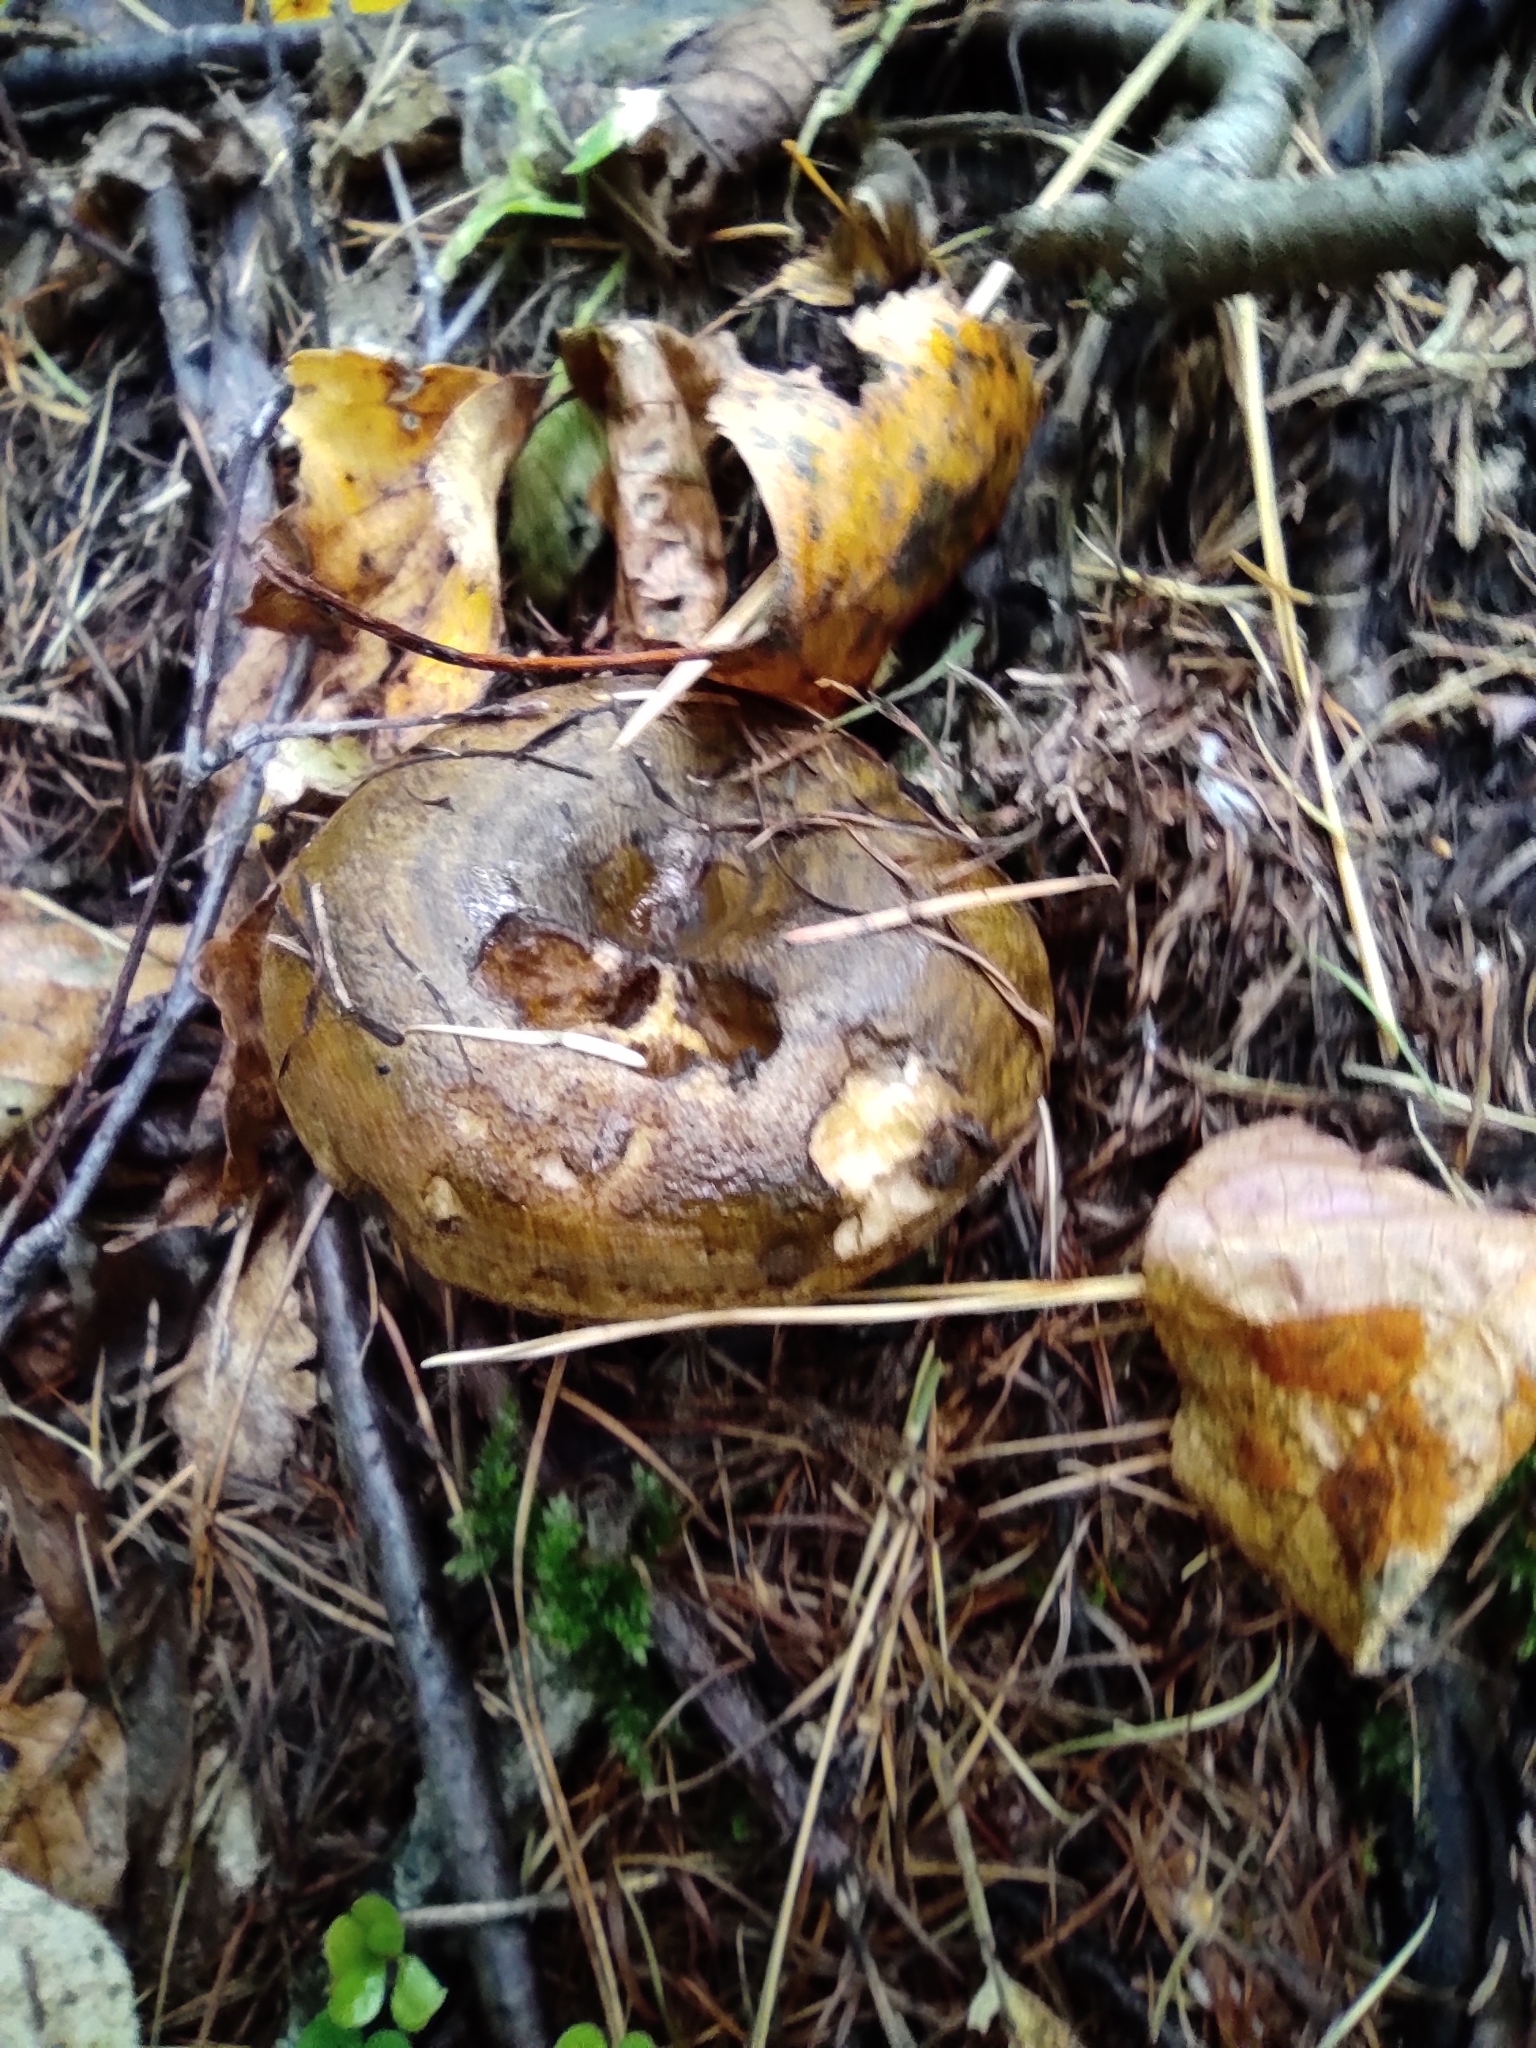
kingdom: Fungi
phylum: Basidiomycota
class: Agaricomycetes
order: Russulales
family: Russulaceae
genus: Lactarius
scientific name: Lactarius turpis
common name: Ugly milk-cap
